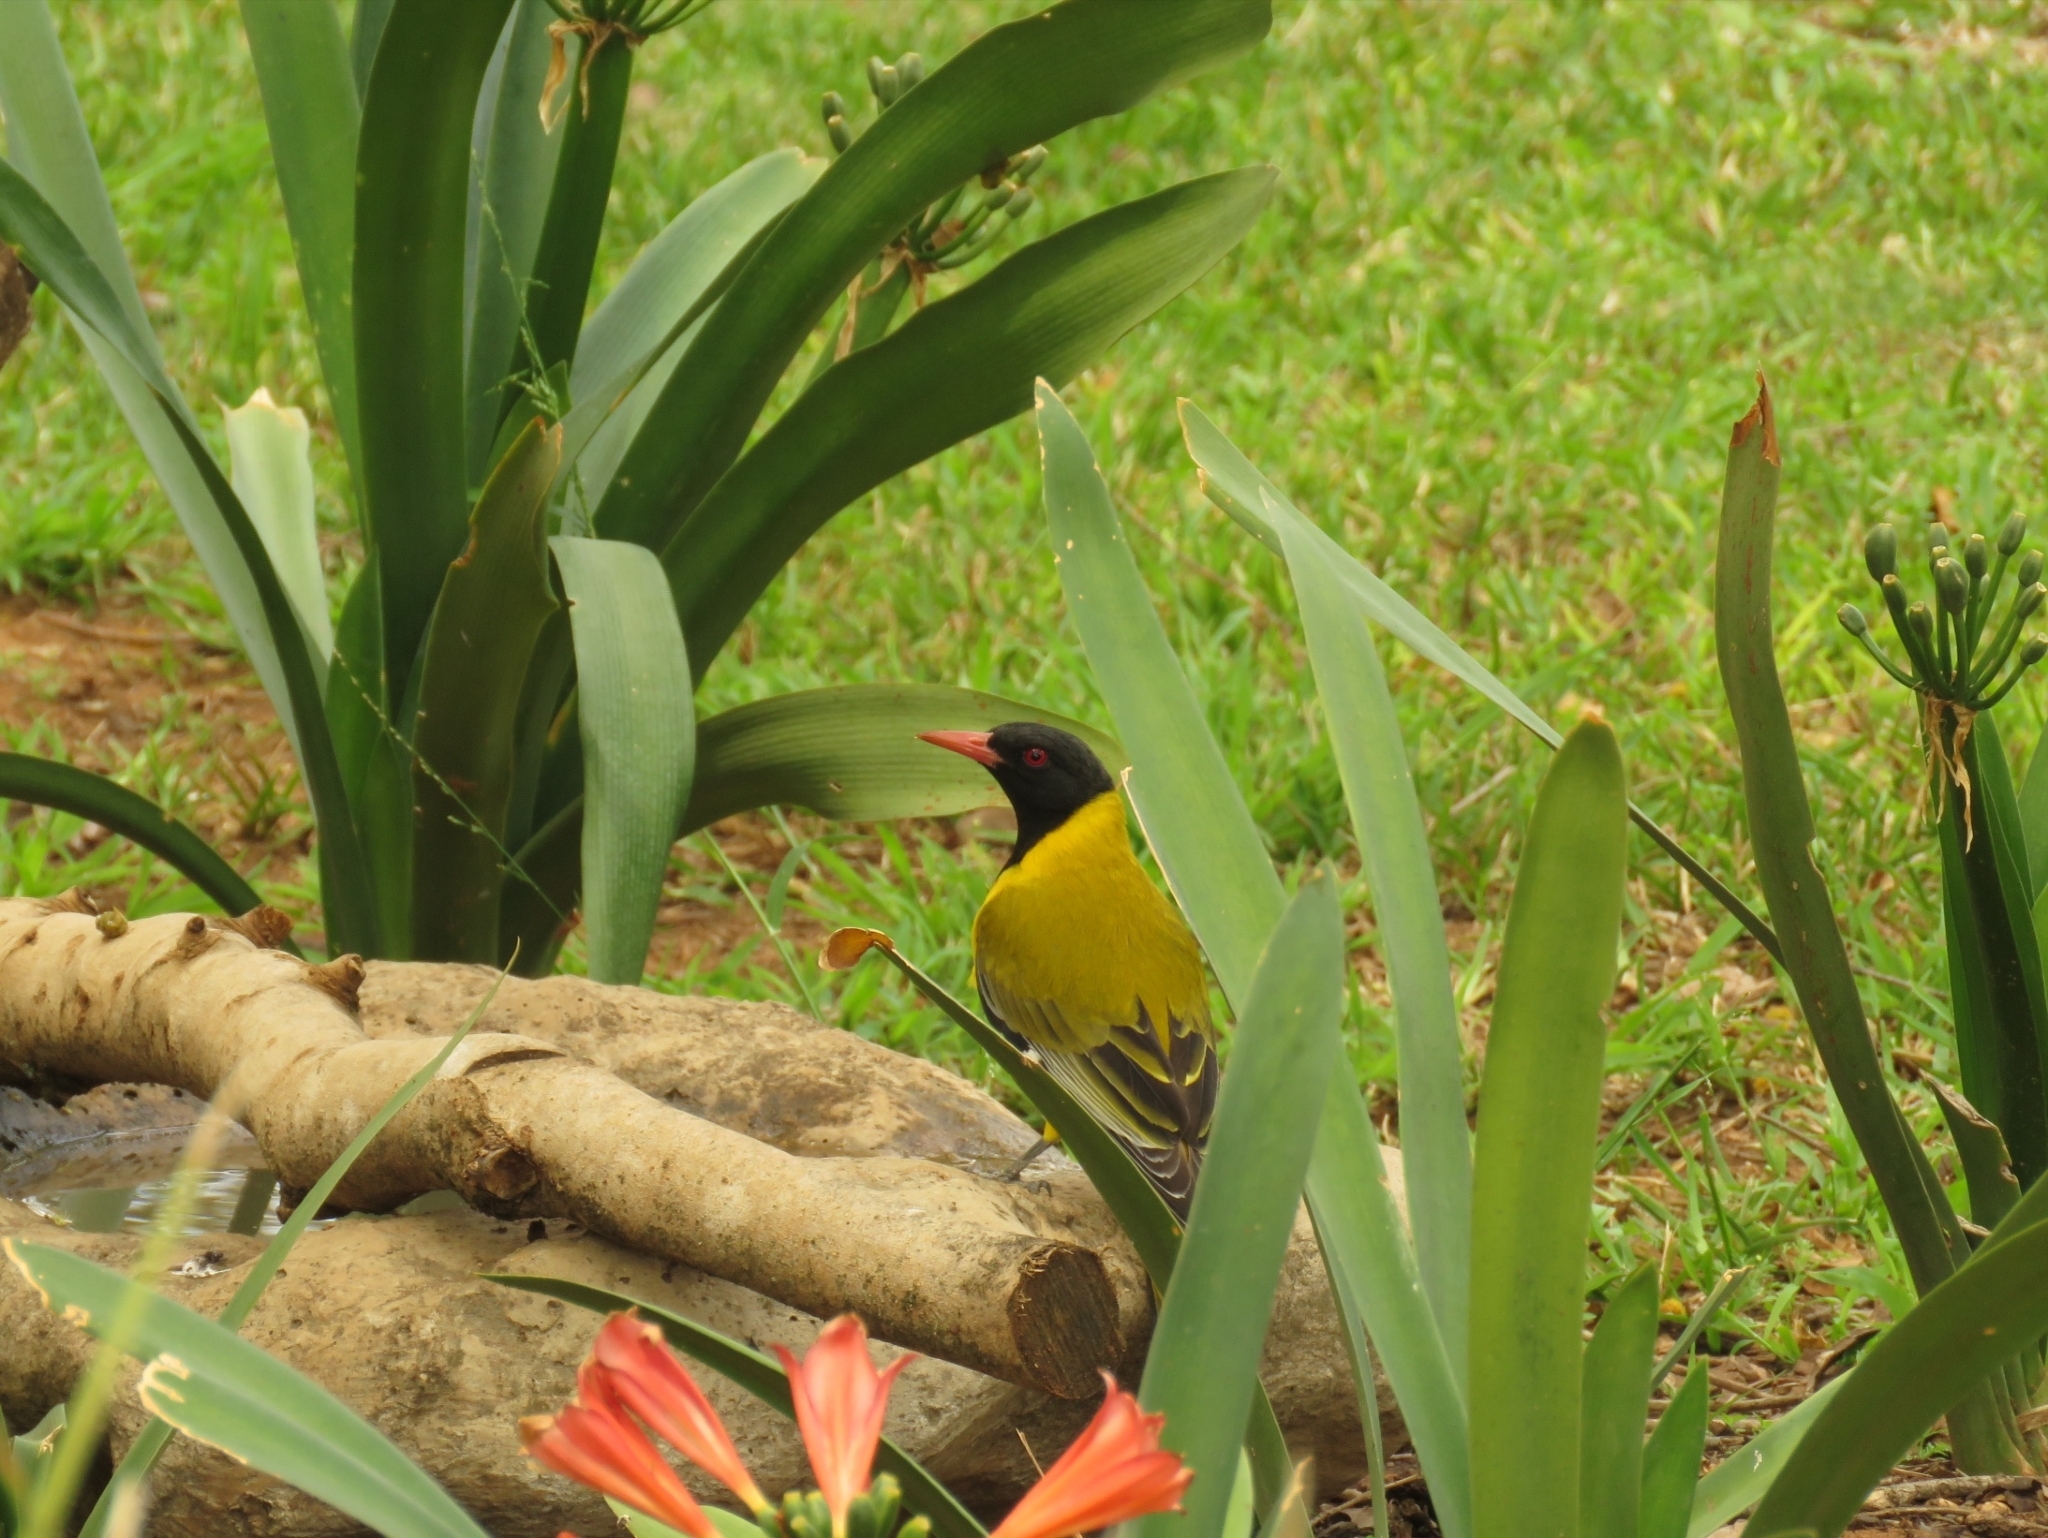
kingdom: Animalia
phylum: Chordata
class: Aves
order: Passeriformes
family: Oriolidae
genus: Oriolus
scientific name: Oriolus larvatus
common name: Black-headed oriole
